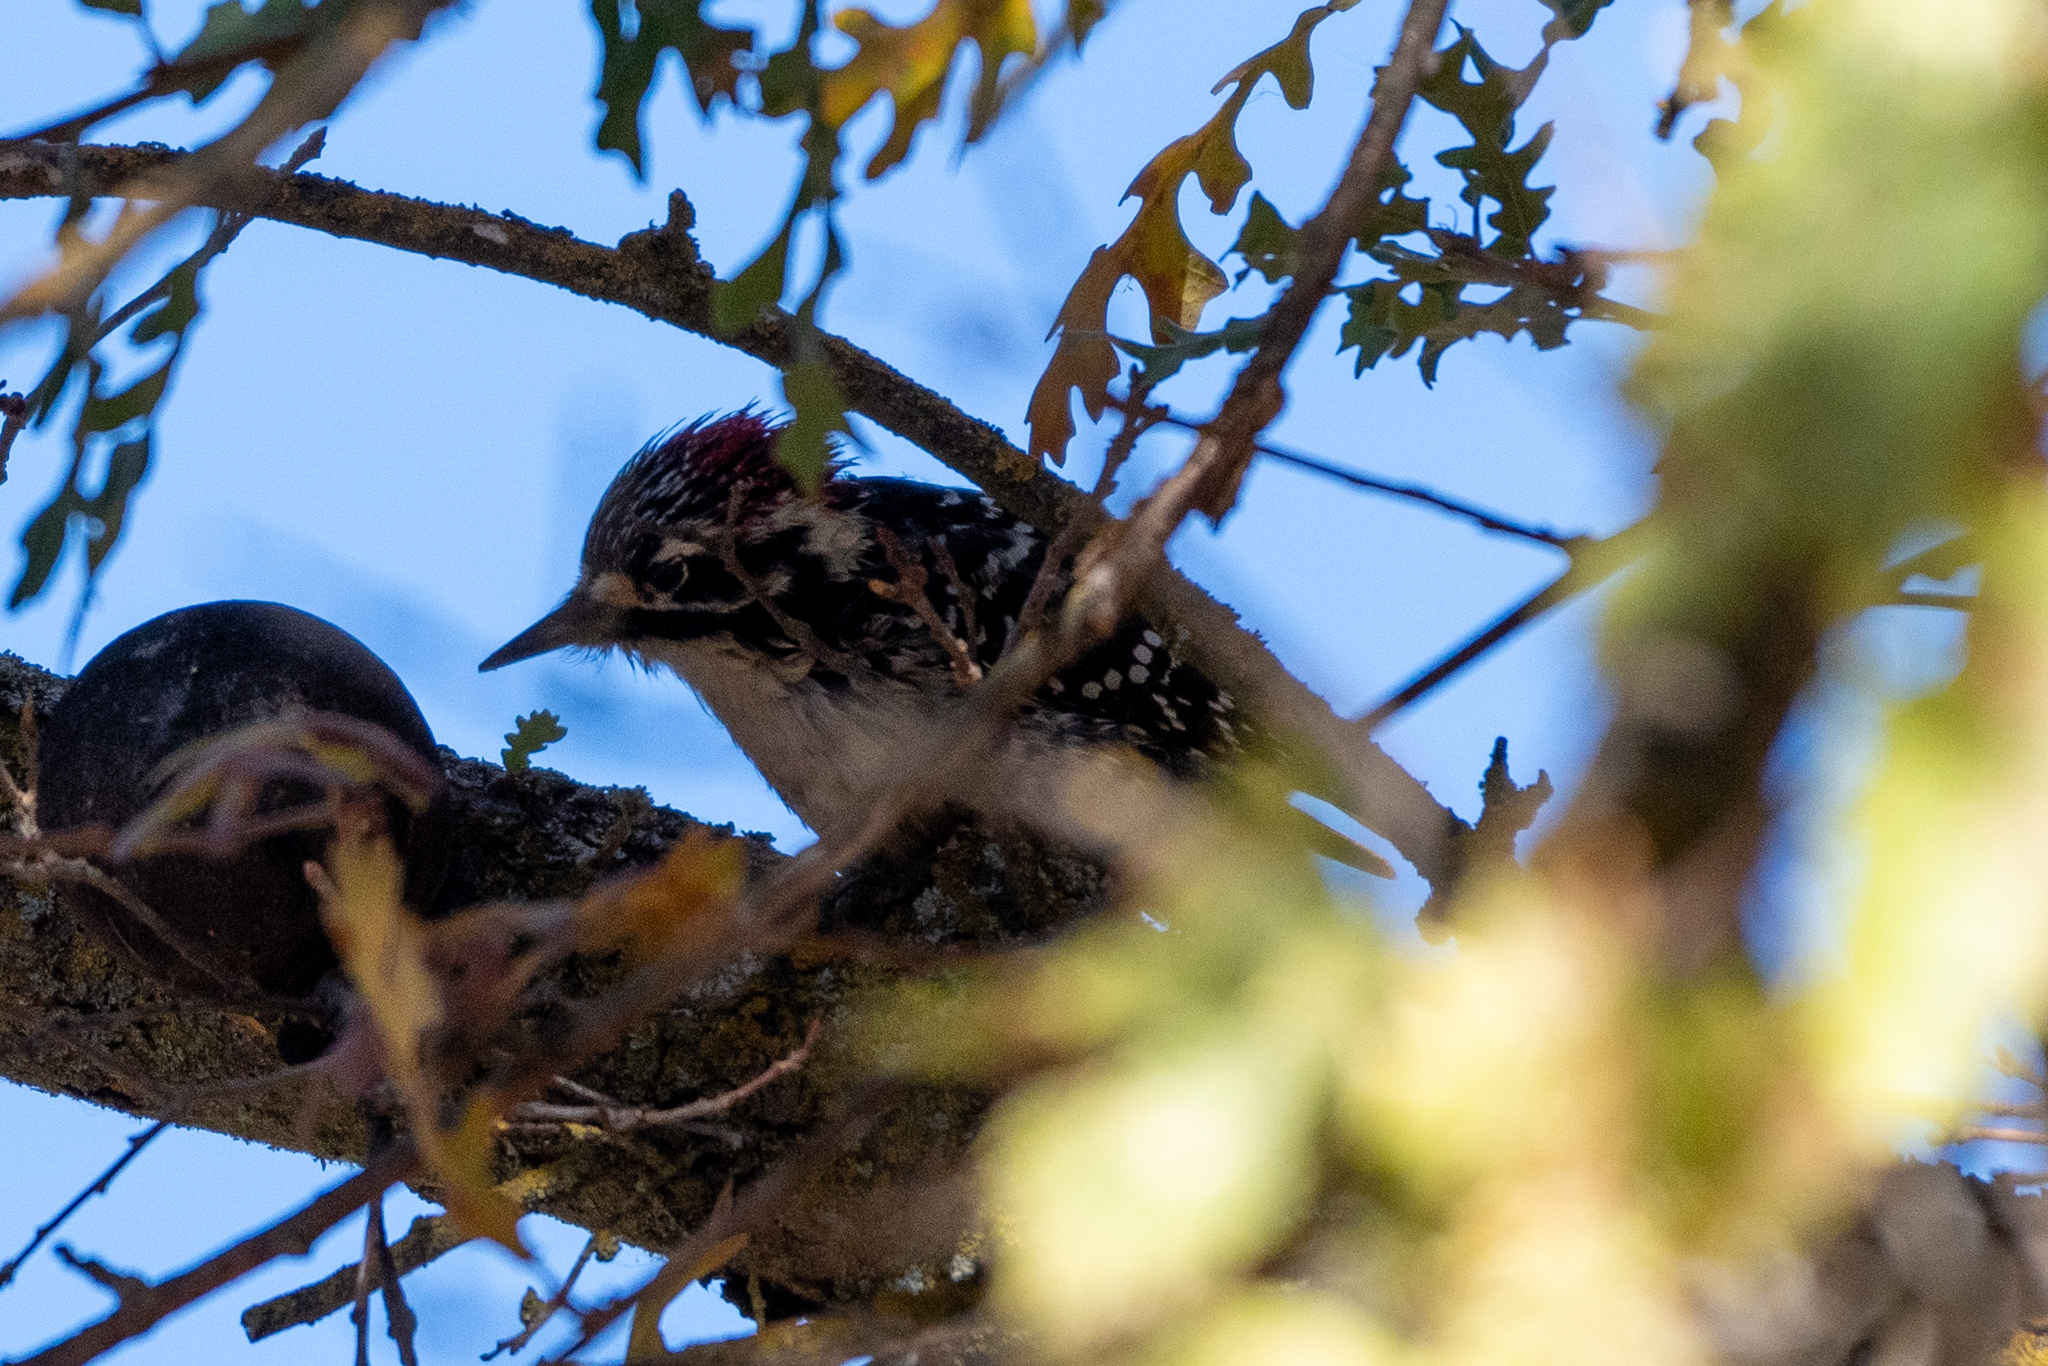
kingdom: Animalia
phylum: Chordata
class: Aves
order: Piciformes
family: Picidae
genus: Dryobates
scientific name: Dryobates nuttallii
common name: Nuttall's woodpecker
